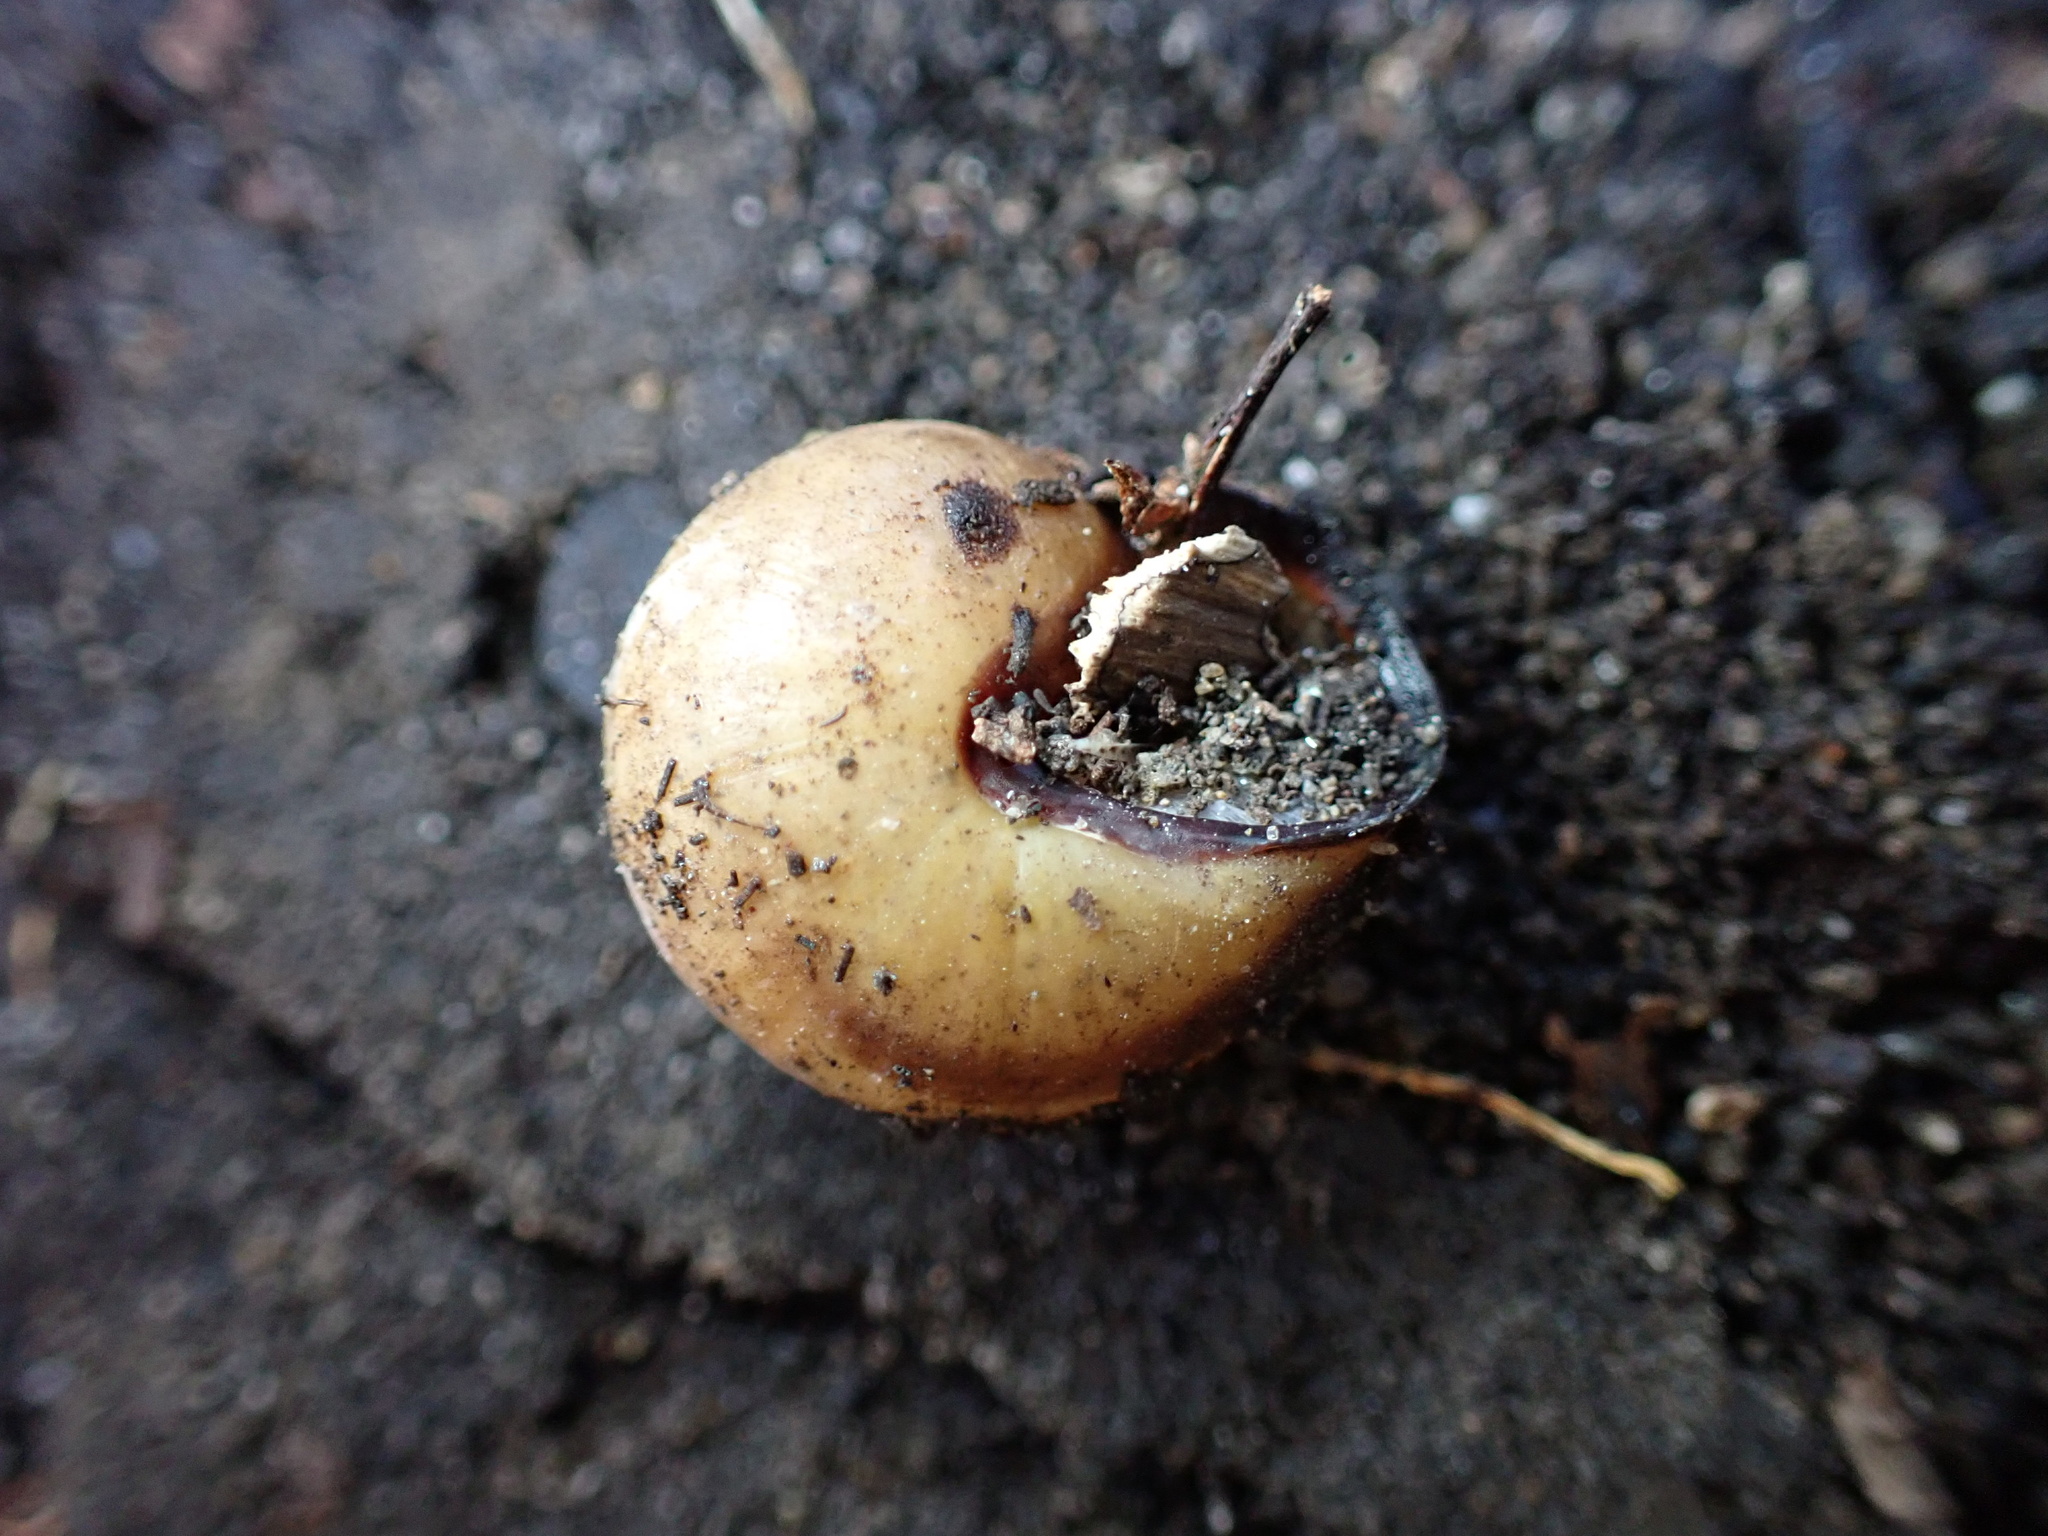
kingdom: Animalia
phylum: Mollusca
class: Gastropoda
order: Stylommatophora
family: Helicidae
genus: Cepaea
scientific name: Cepaea nemoralis
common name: Grovesnail
